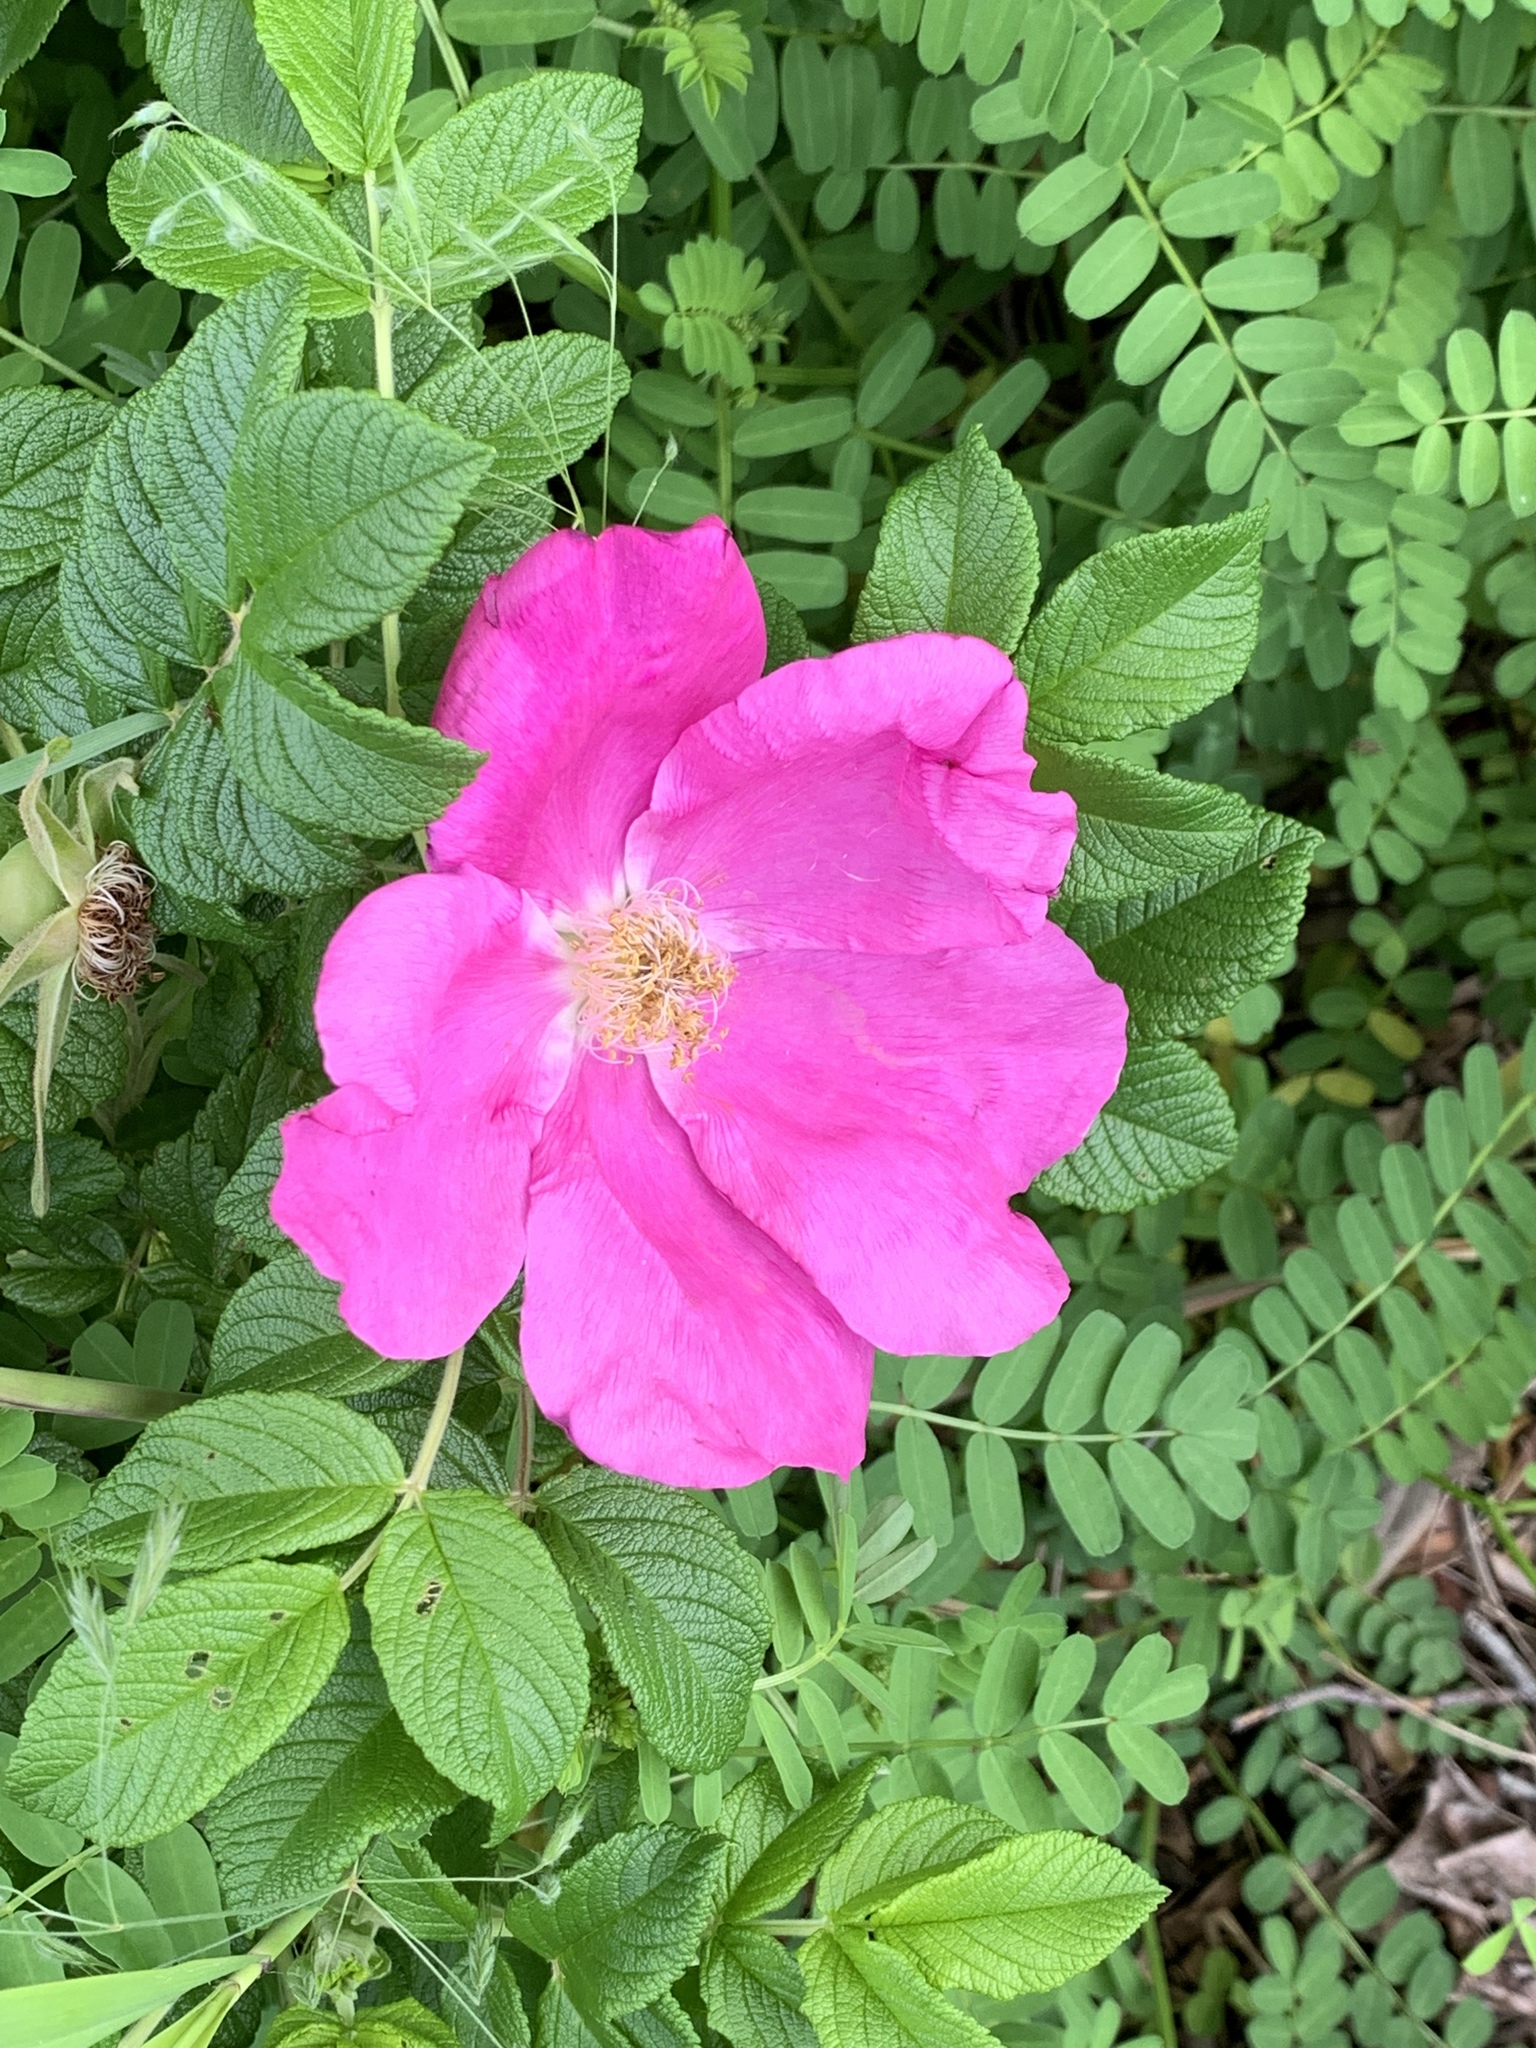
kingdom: Plantae
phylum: Tracheophyta
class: Magnoliopsida
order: Rosales
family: Rosaceae
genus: Rosa
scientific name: Rosa rugosa
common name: Japanese rose
